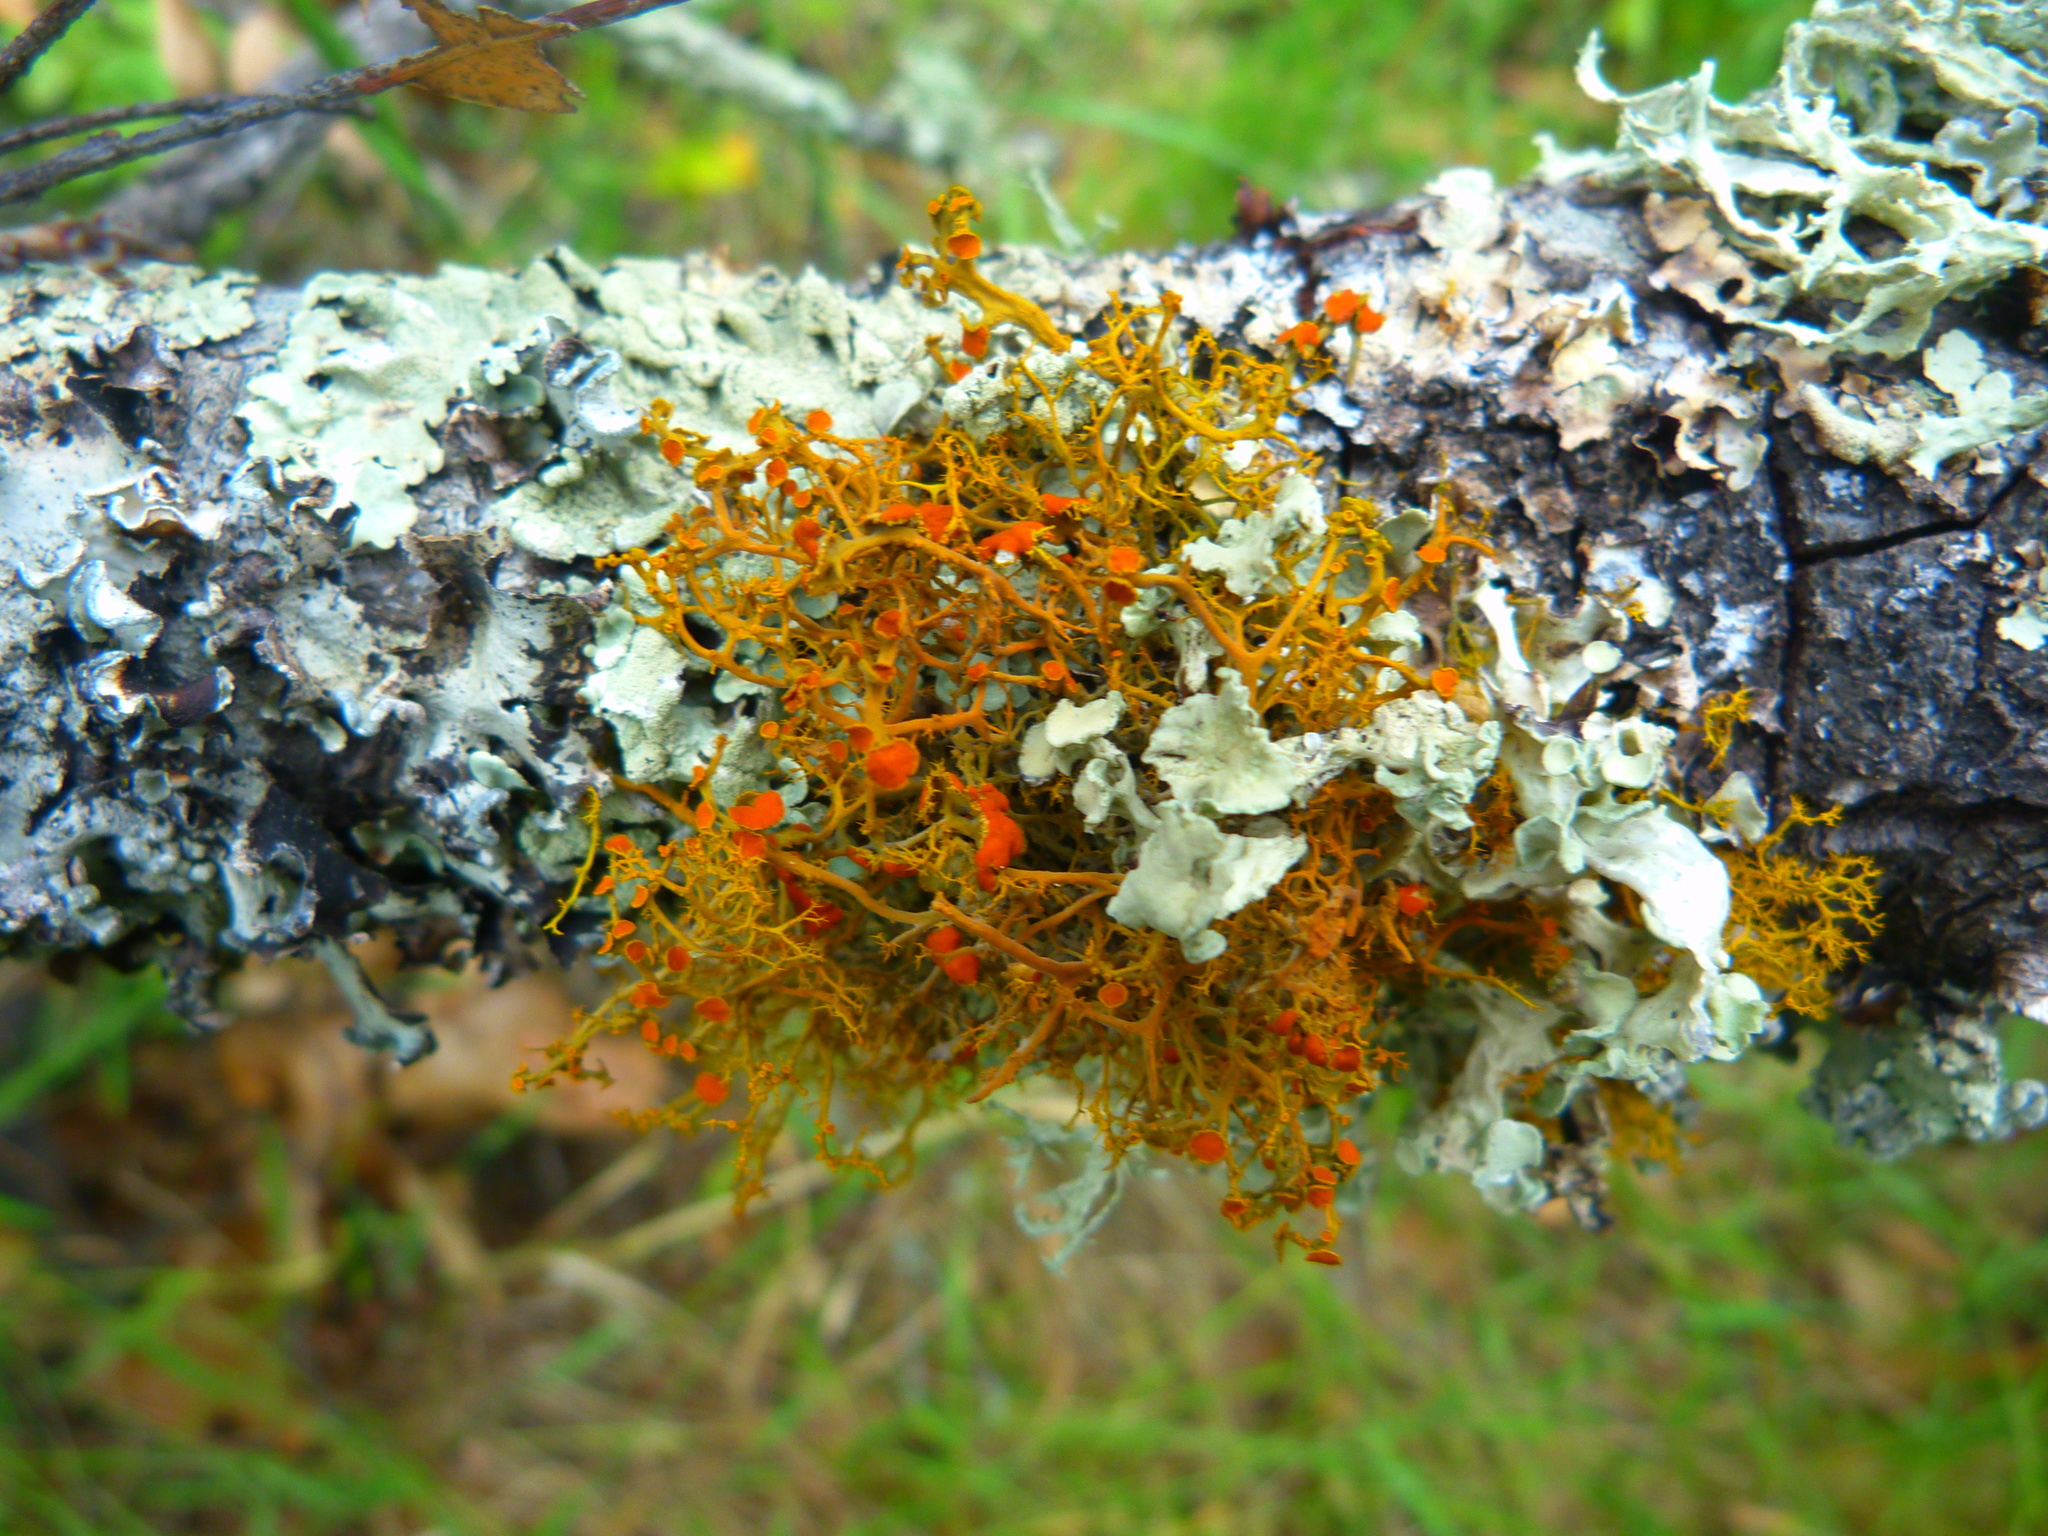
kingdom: Fungi
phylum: Ascomycota
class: Lecanoromycetes
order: Teloschistales
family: Teloschistaceae
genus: Teloschistes
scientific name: Teloschistes flavicans
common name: Golden hair-lichen
